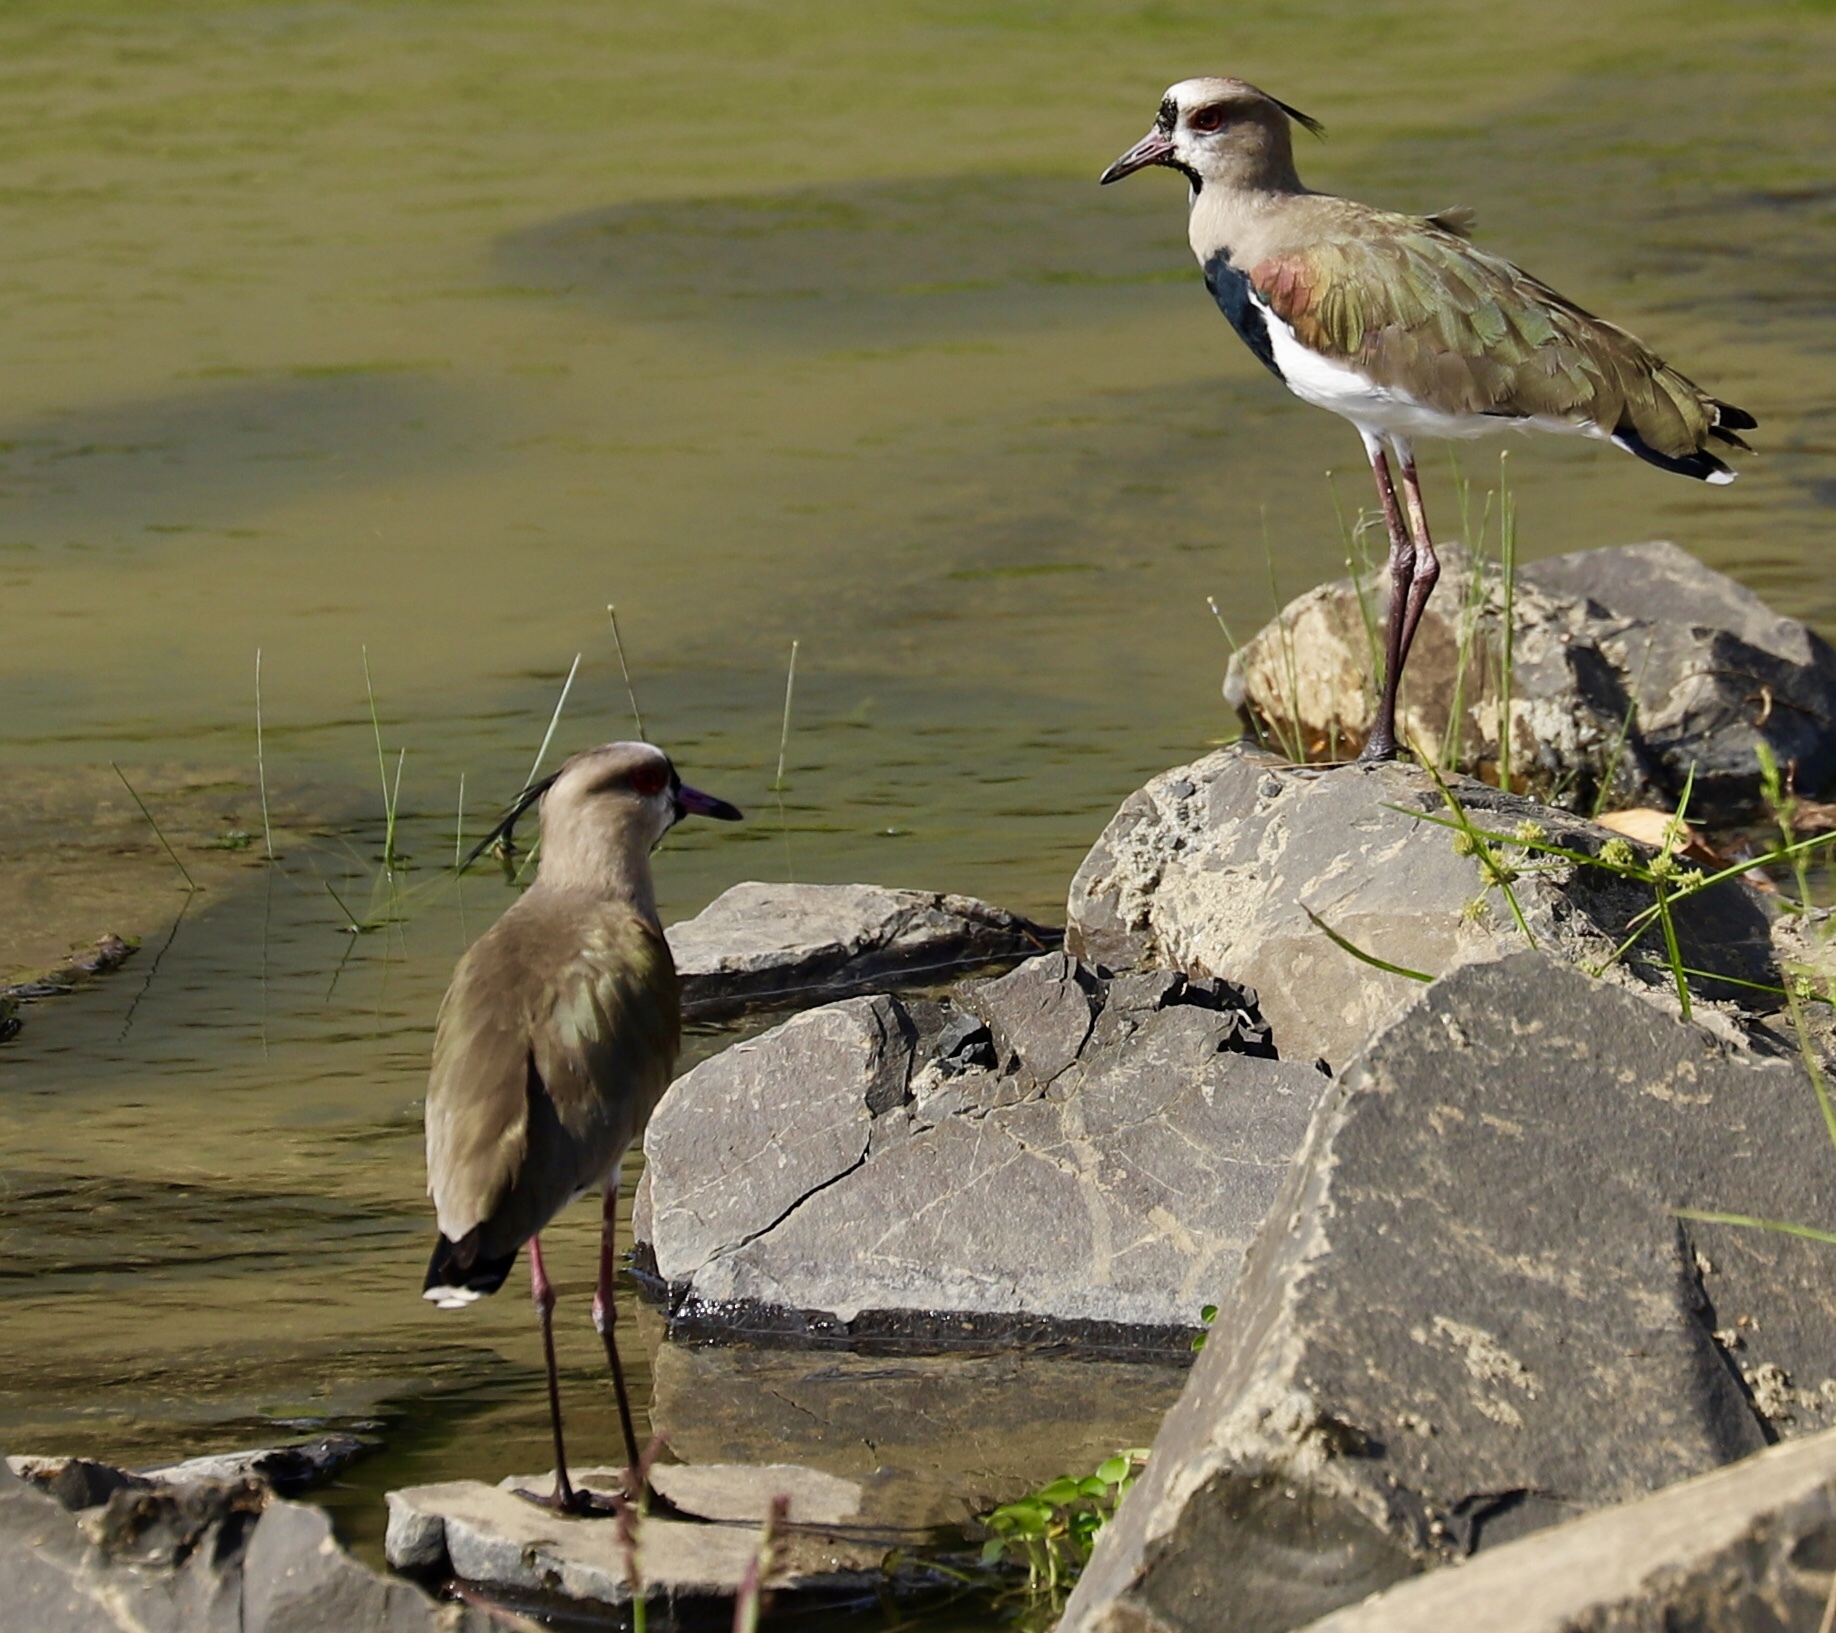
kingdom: Animalia
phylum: Chordata
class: Aves
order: Charadriiformes
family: Charadriidae
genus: Vanellus
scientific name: Vanellus chilensis
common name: Southern lapwing
